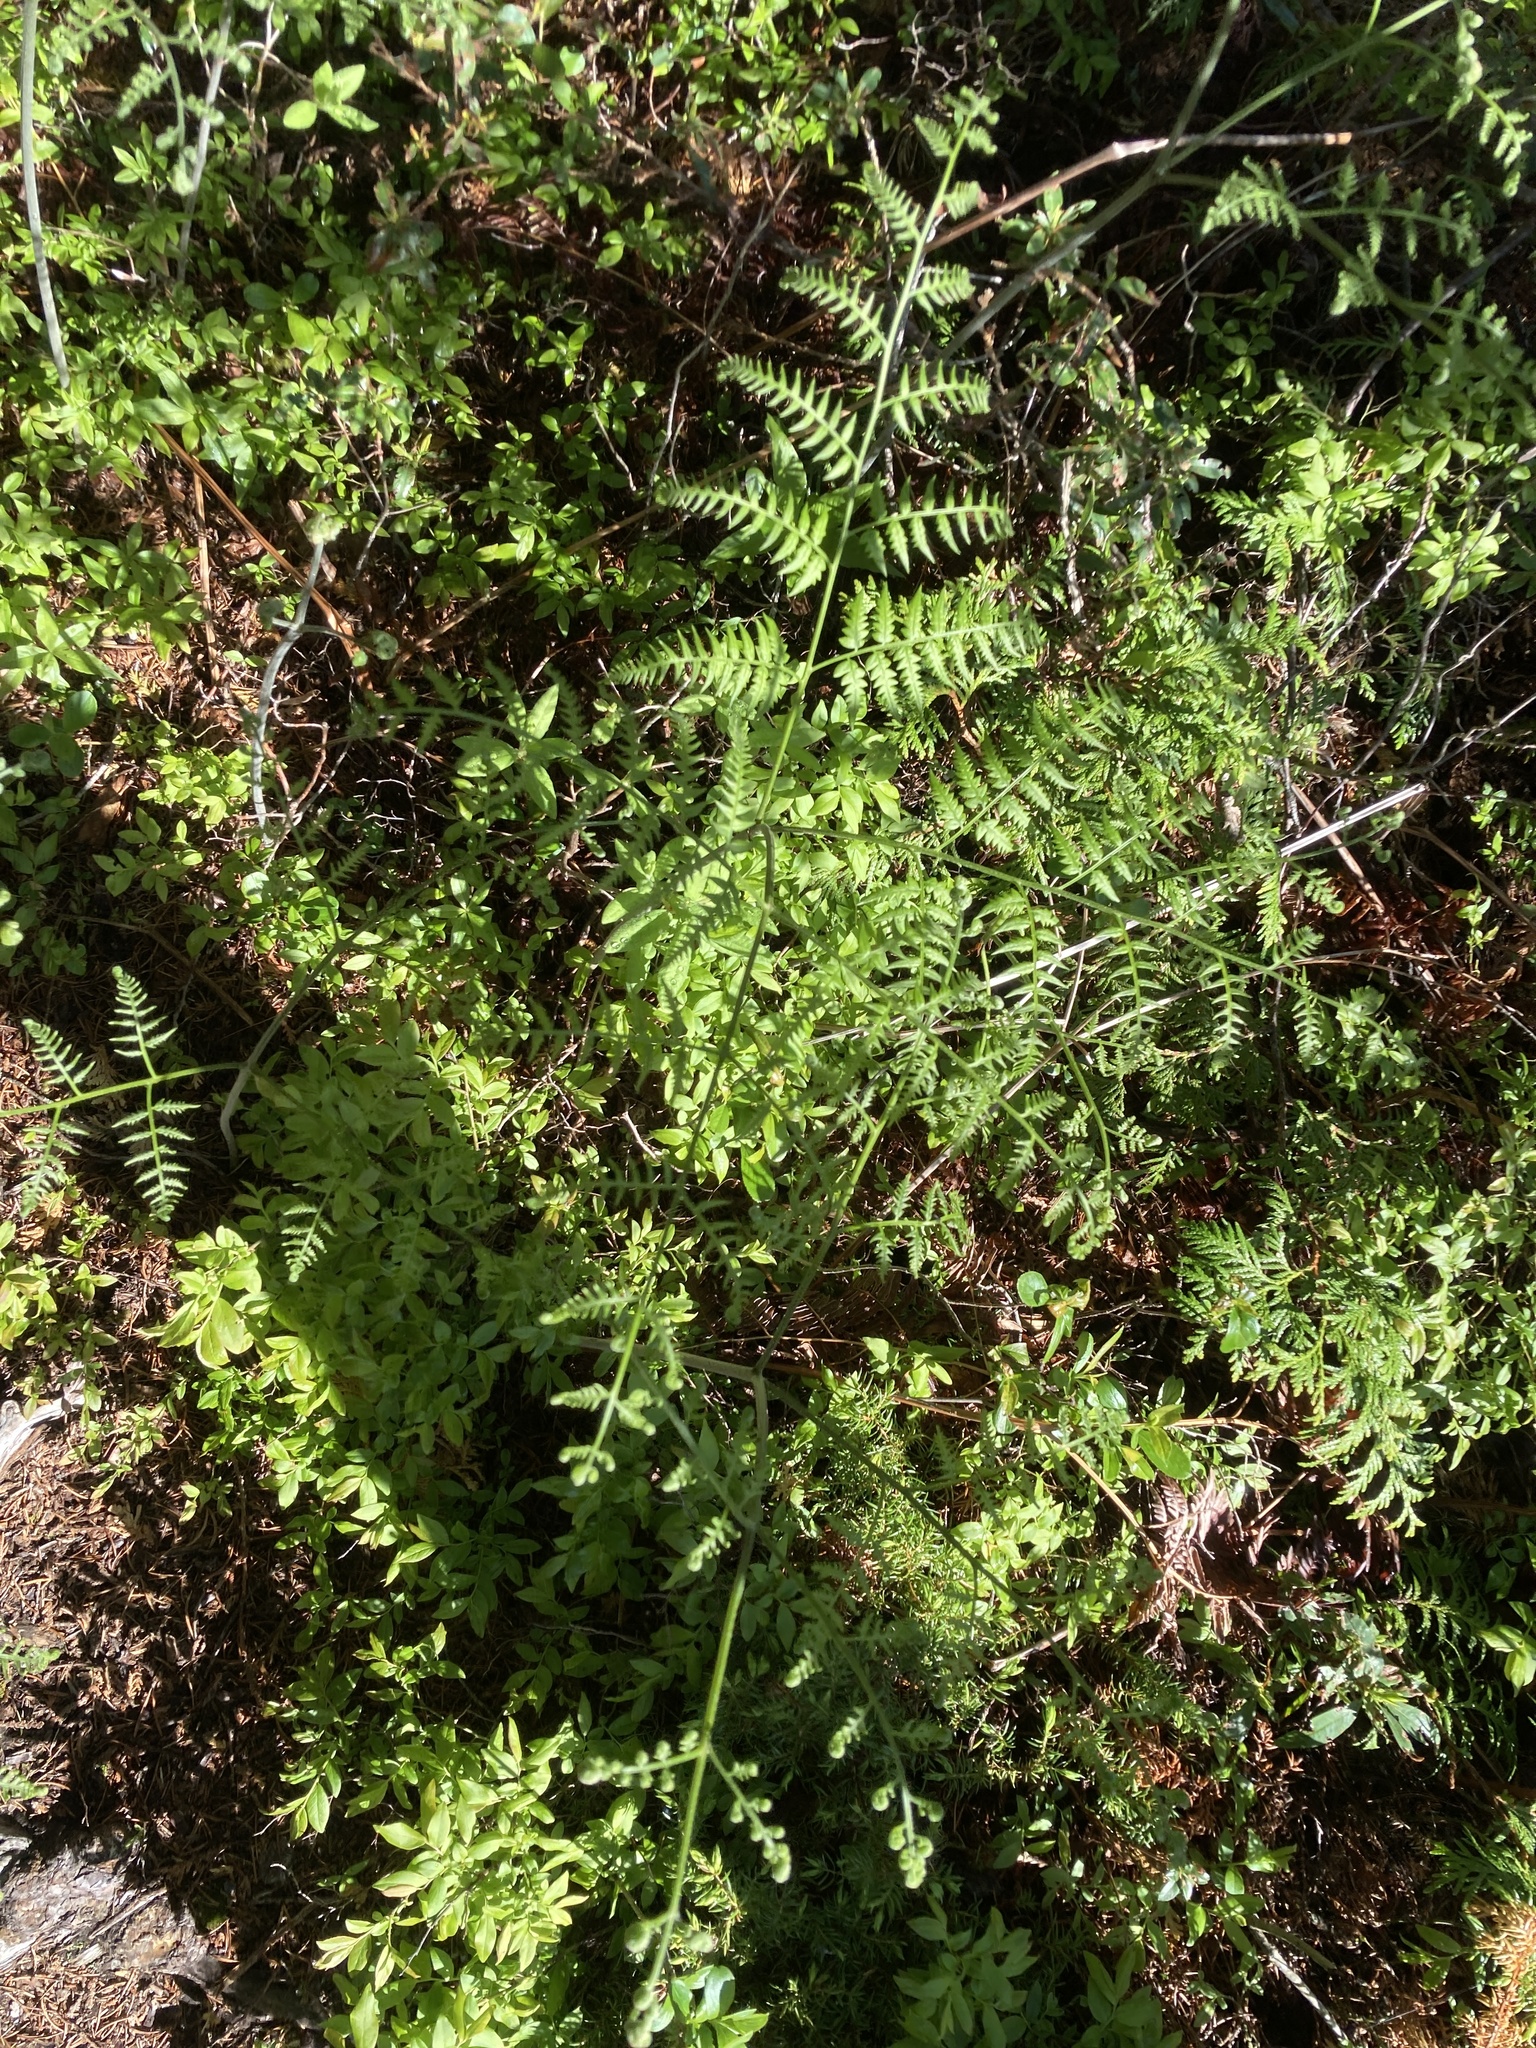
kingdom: Plantae
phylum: Tracheophyta
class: Polypodiopsida
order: Polypodiales
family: Dennstaedtiaceae
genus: Pteridium
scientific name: Pteridium aquilinum
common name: Bracken
